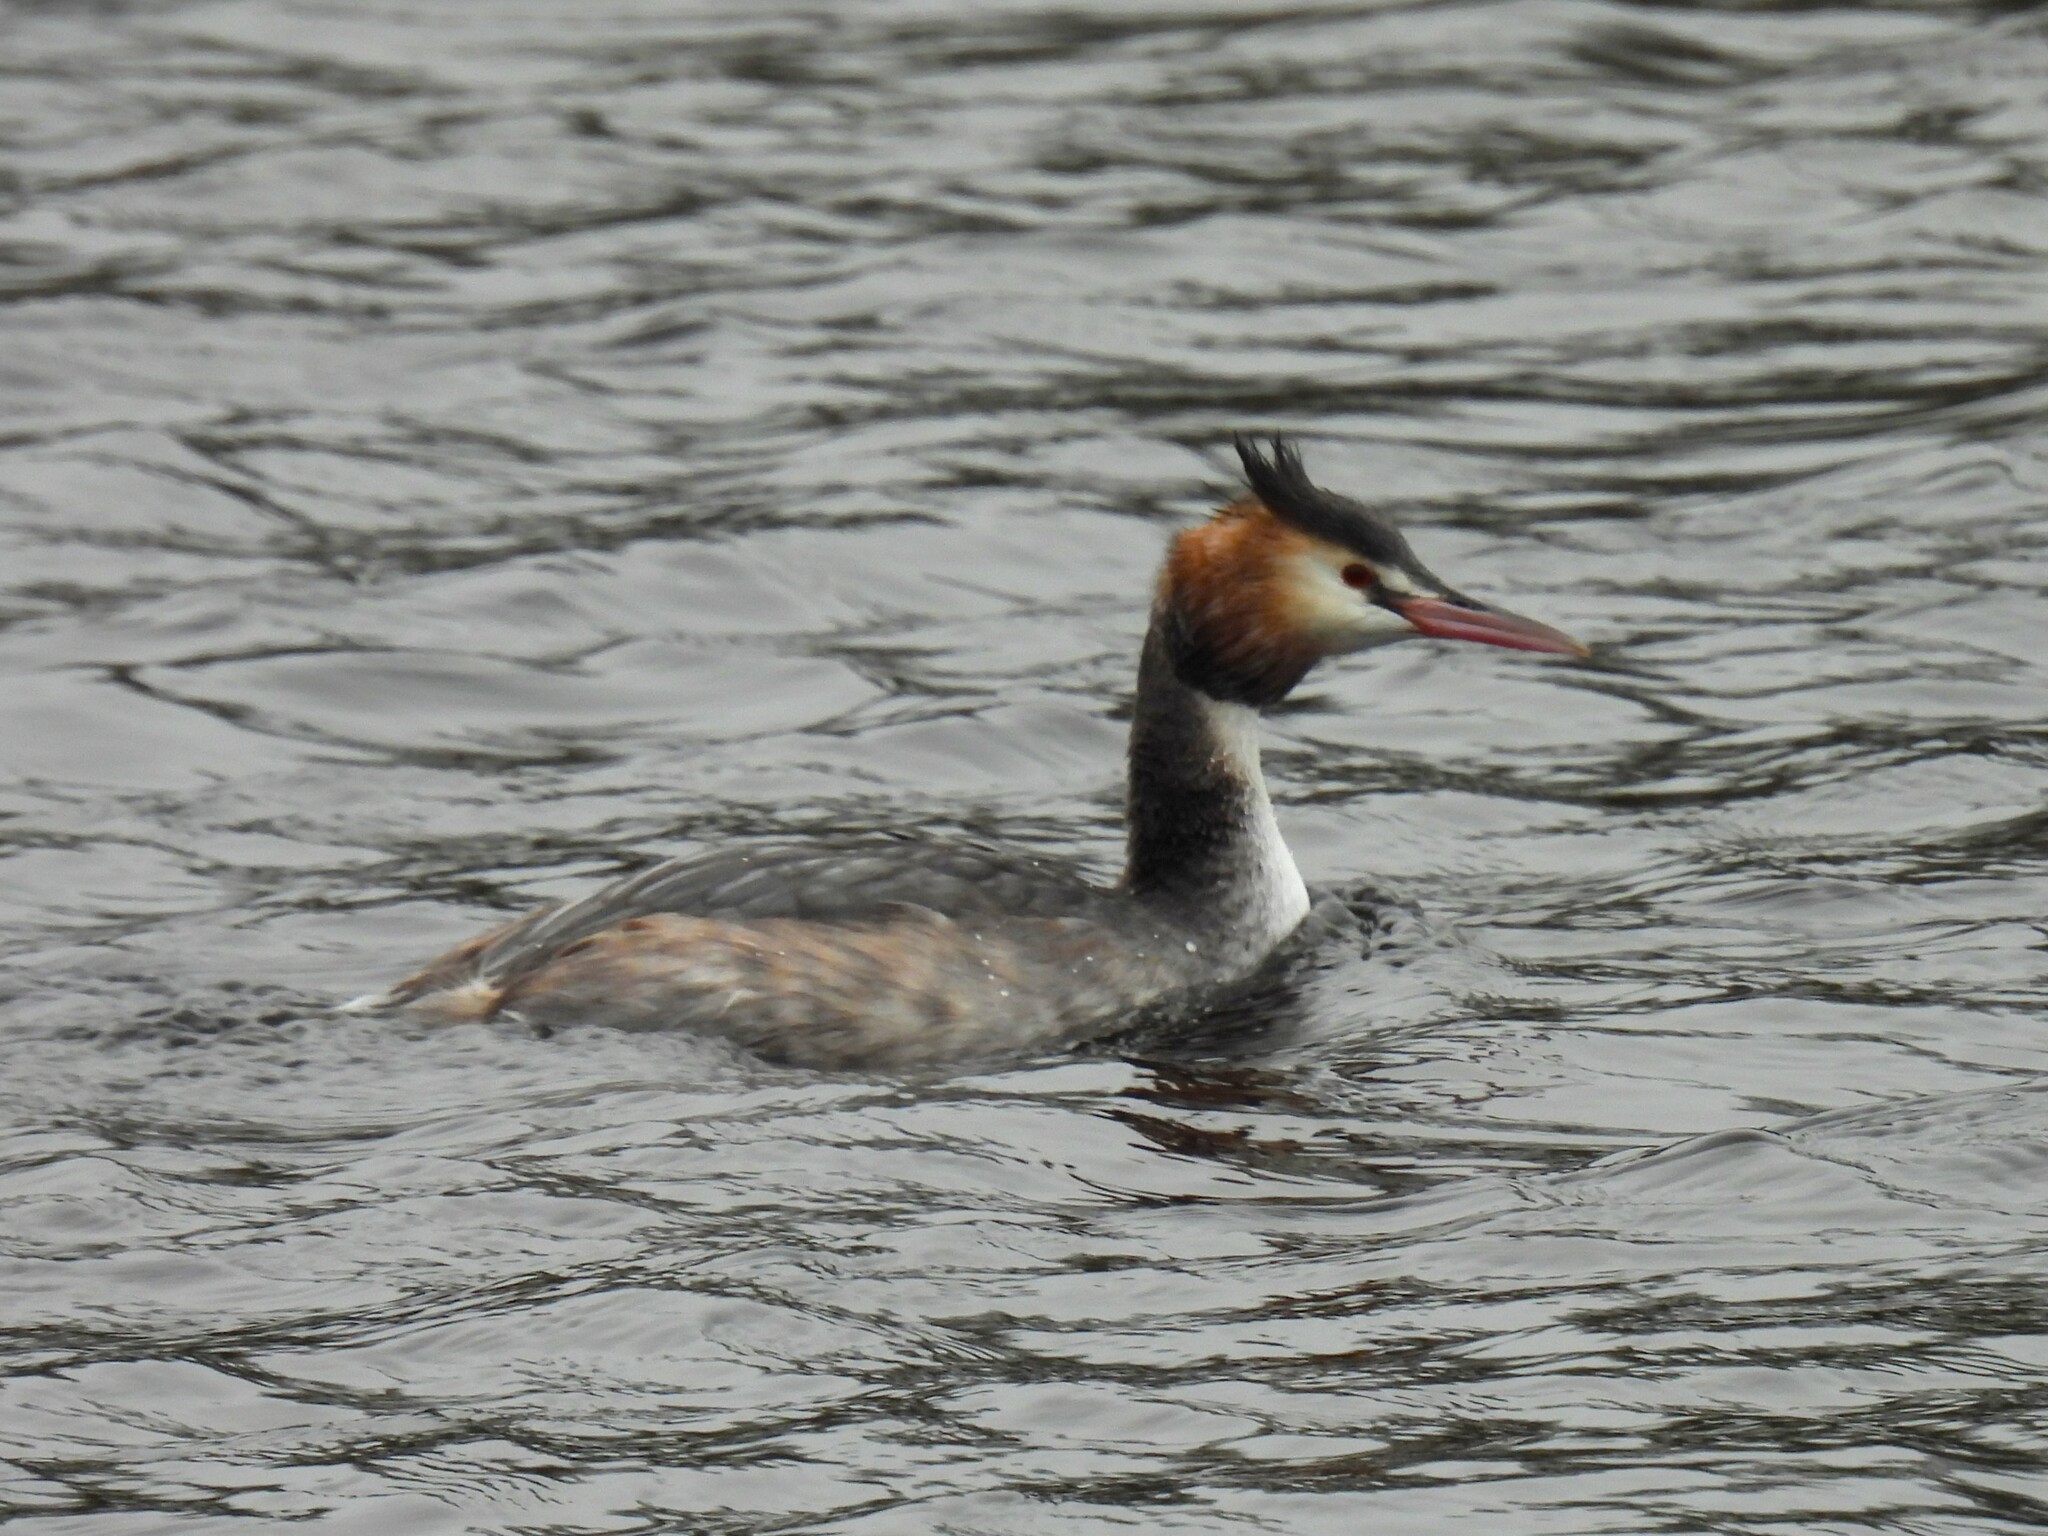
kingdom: Animalia
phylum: Chordata
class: Aves
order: Podicipediformes
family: Podicipedidae
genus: Podiceps
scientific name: Podiceps cristatus
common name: Great crested grebe
